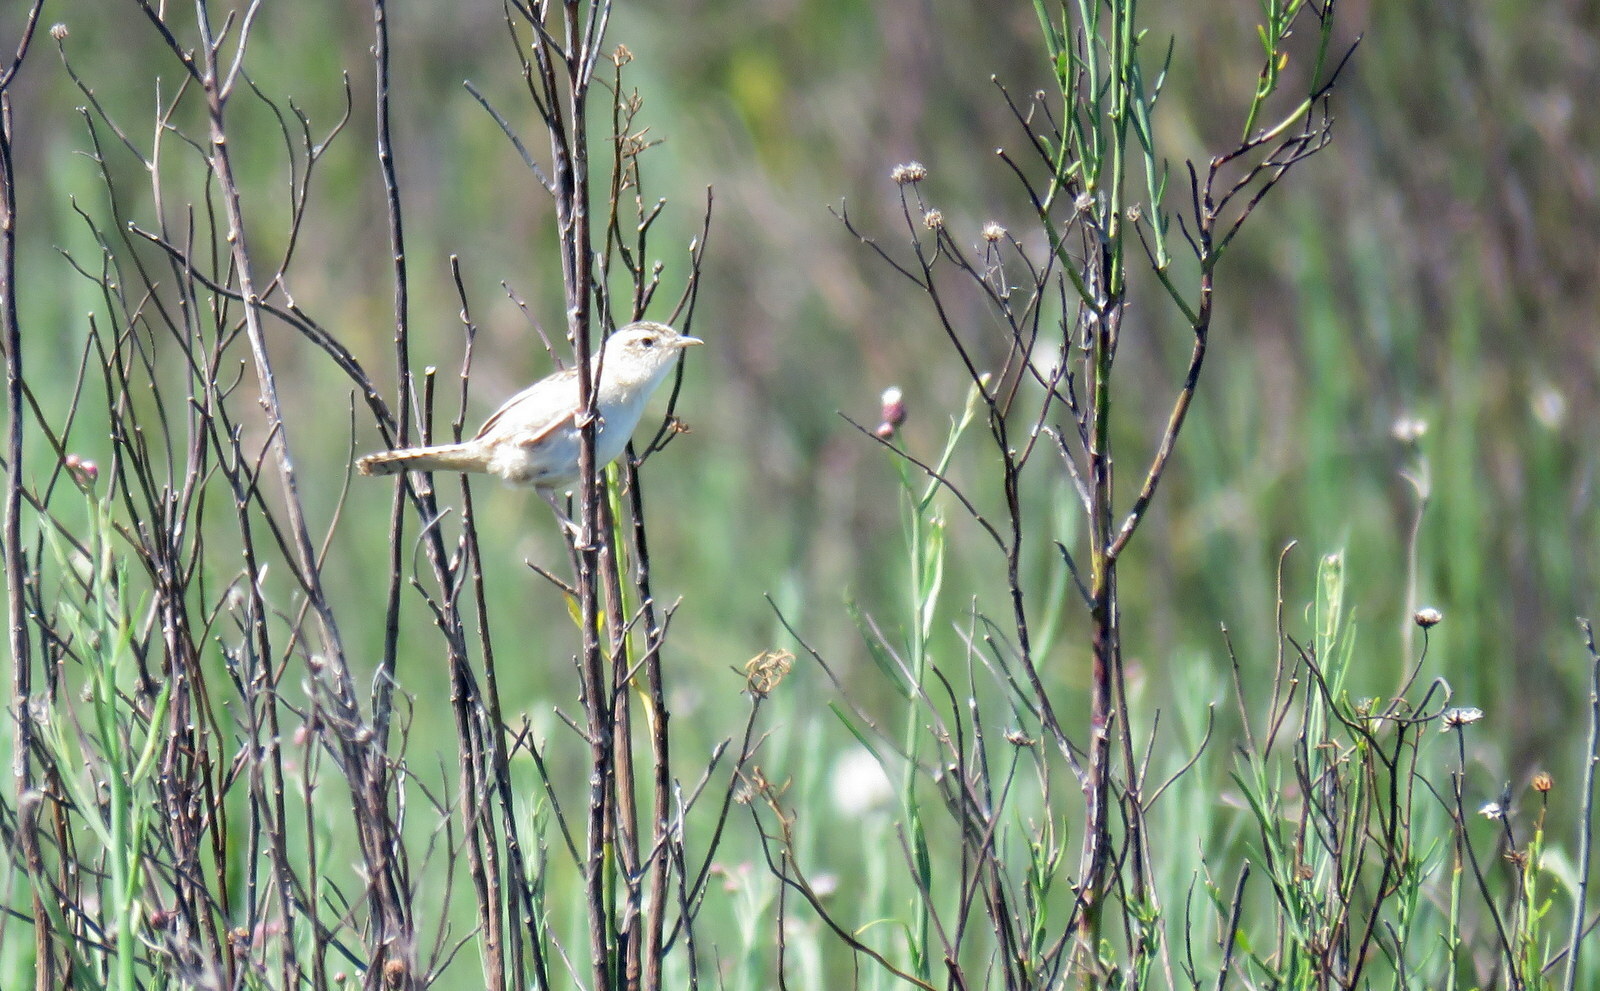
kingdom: Animalia
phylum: Chordata
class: Aves
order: Passeriformes
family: Troglodytidae
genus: Cistothorus
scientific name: Cistothorus platensis
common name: Sedge wren
